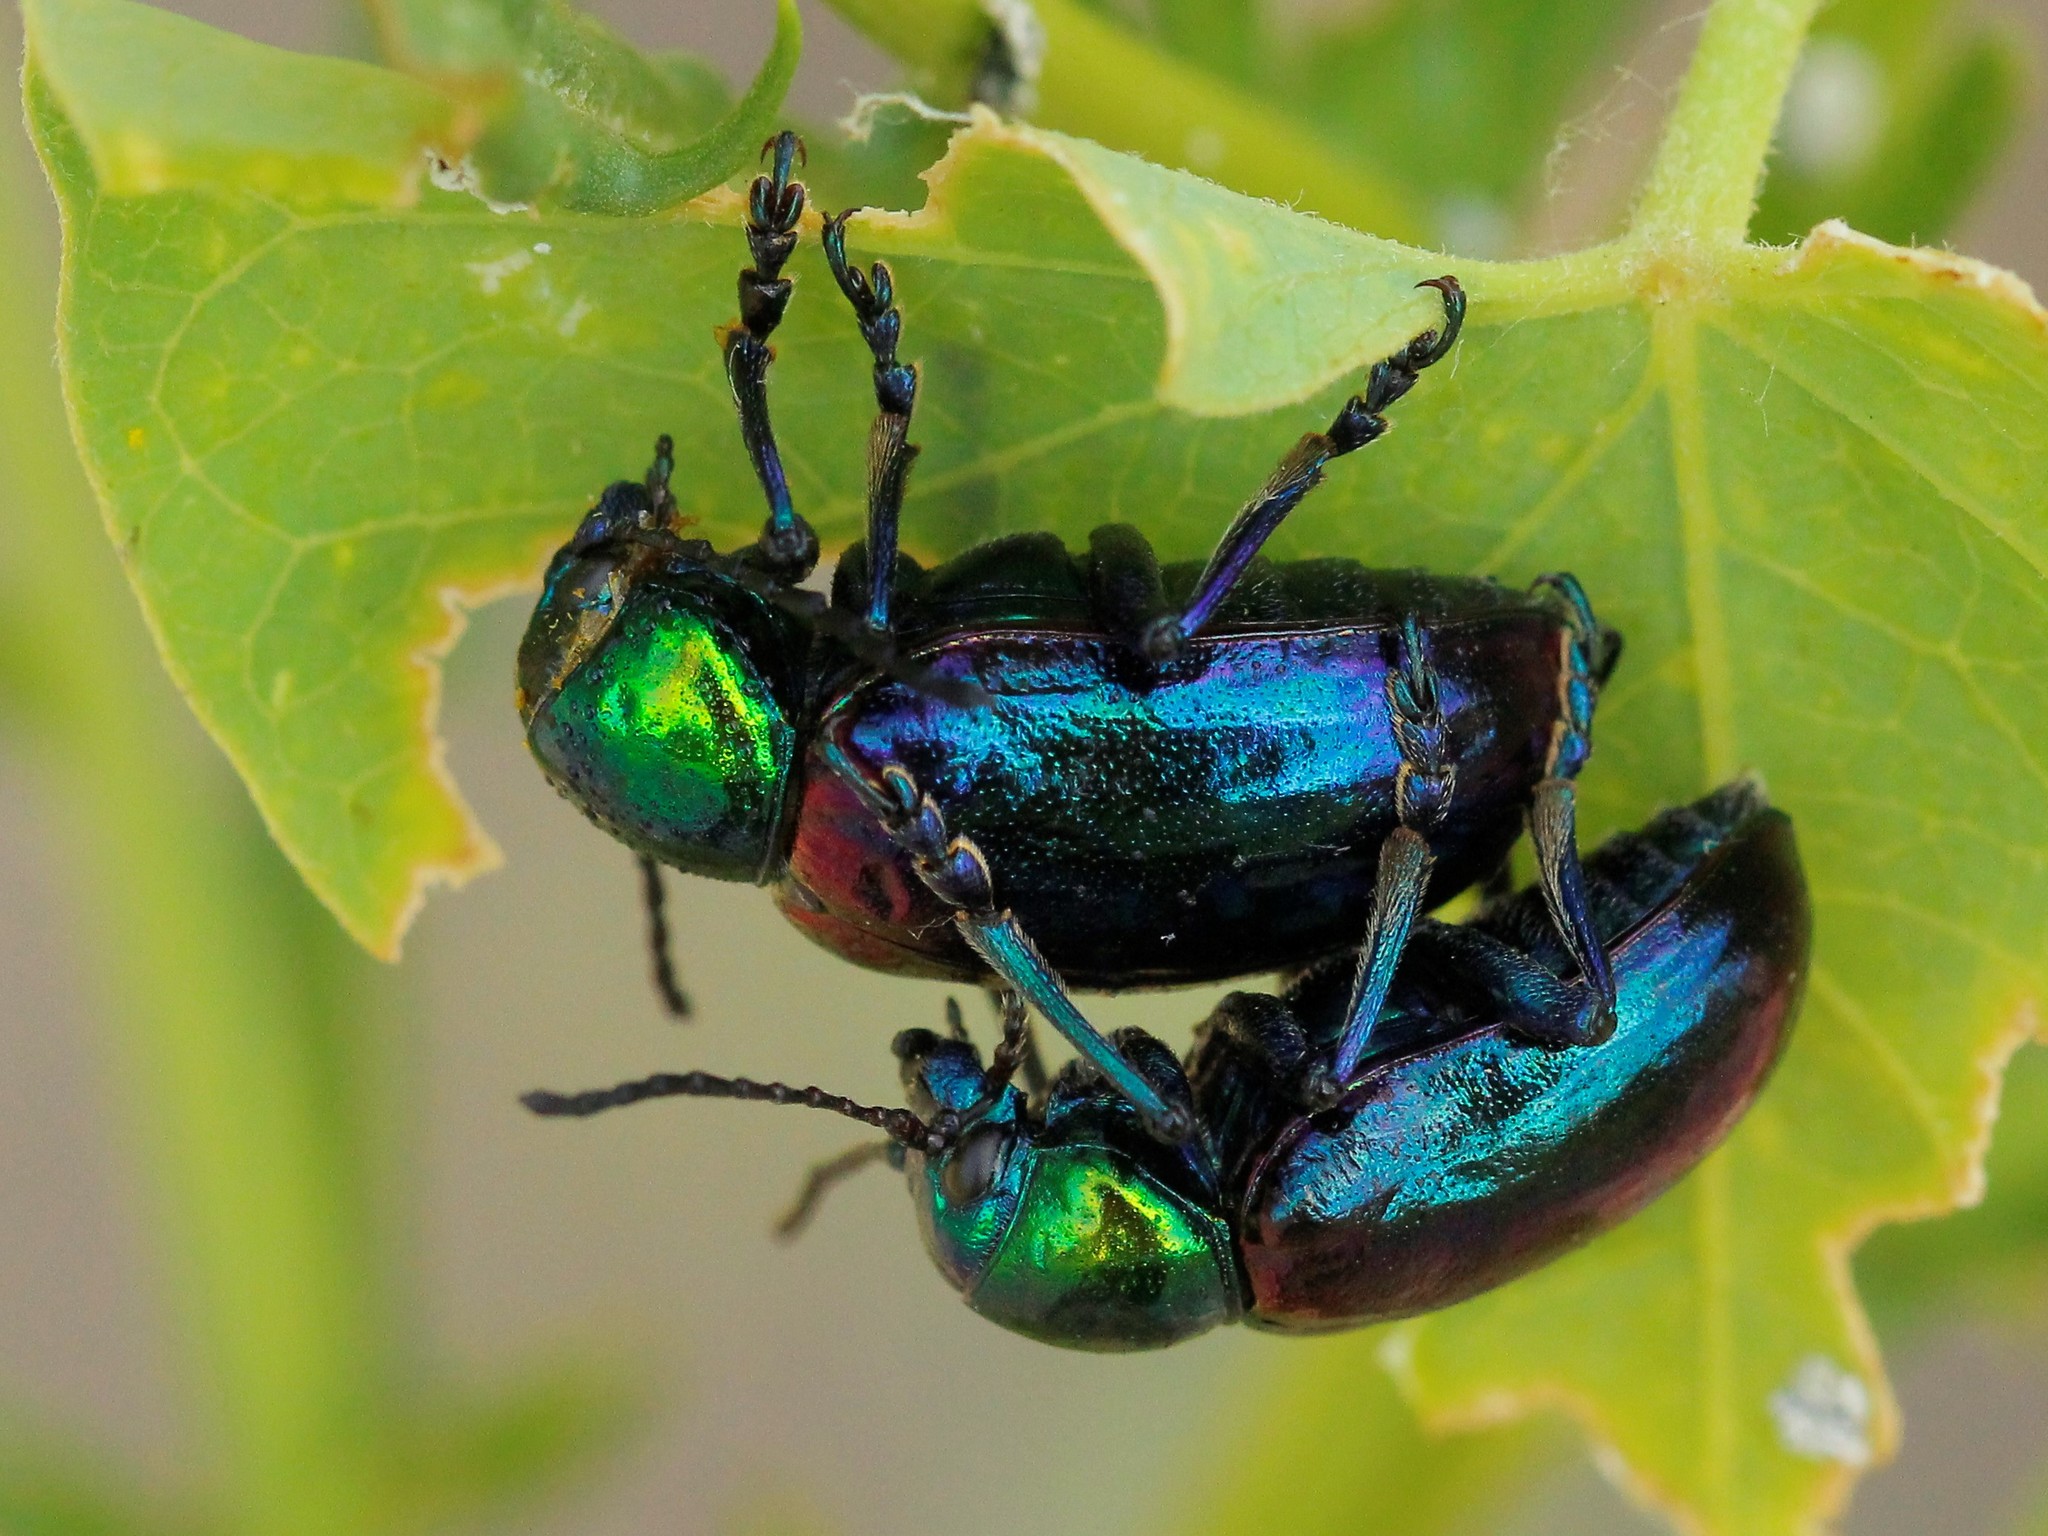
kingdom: Animalia
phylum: Arthropoda
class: Insecta
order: Coleoptera
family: Chrysomelidae
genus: Chrysochares
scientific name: Chrysochares
